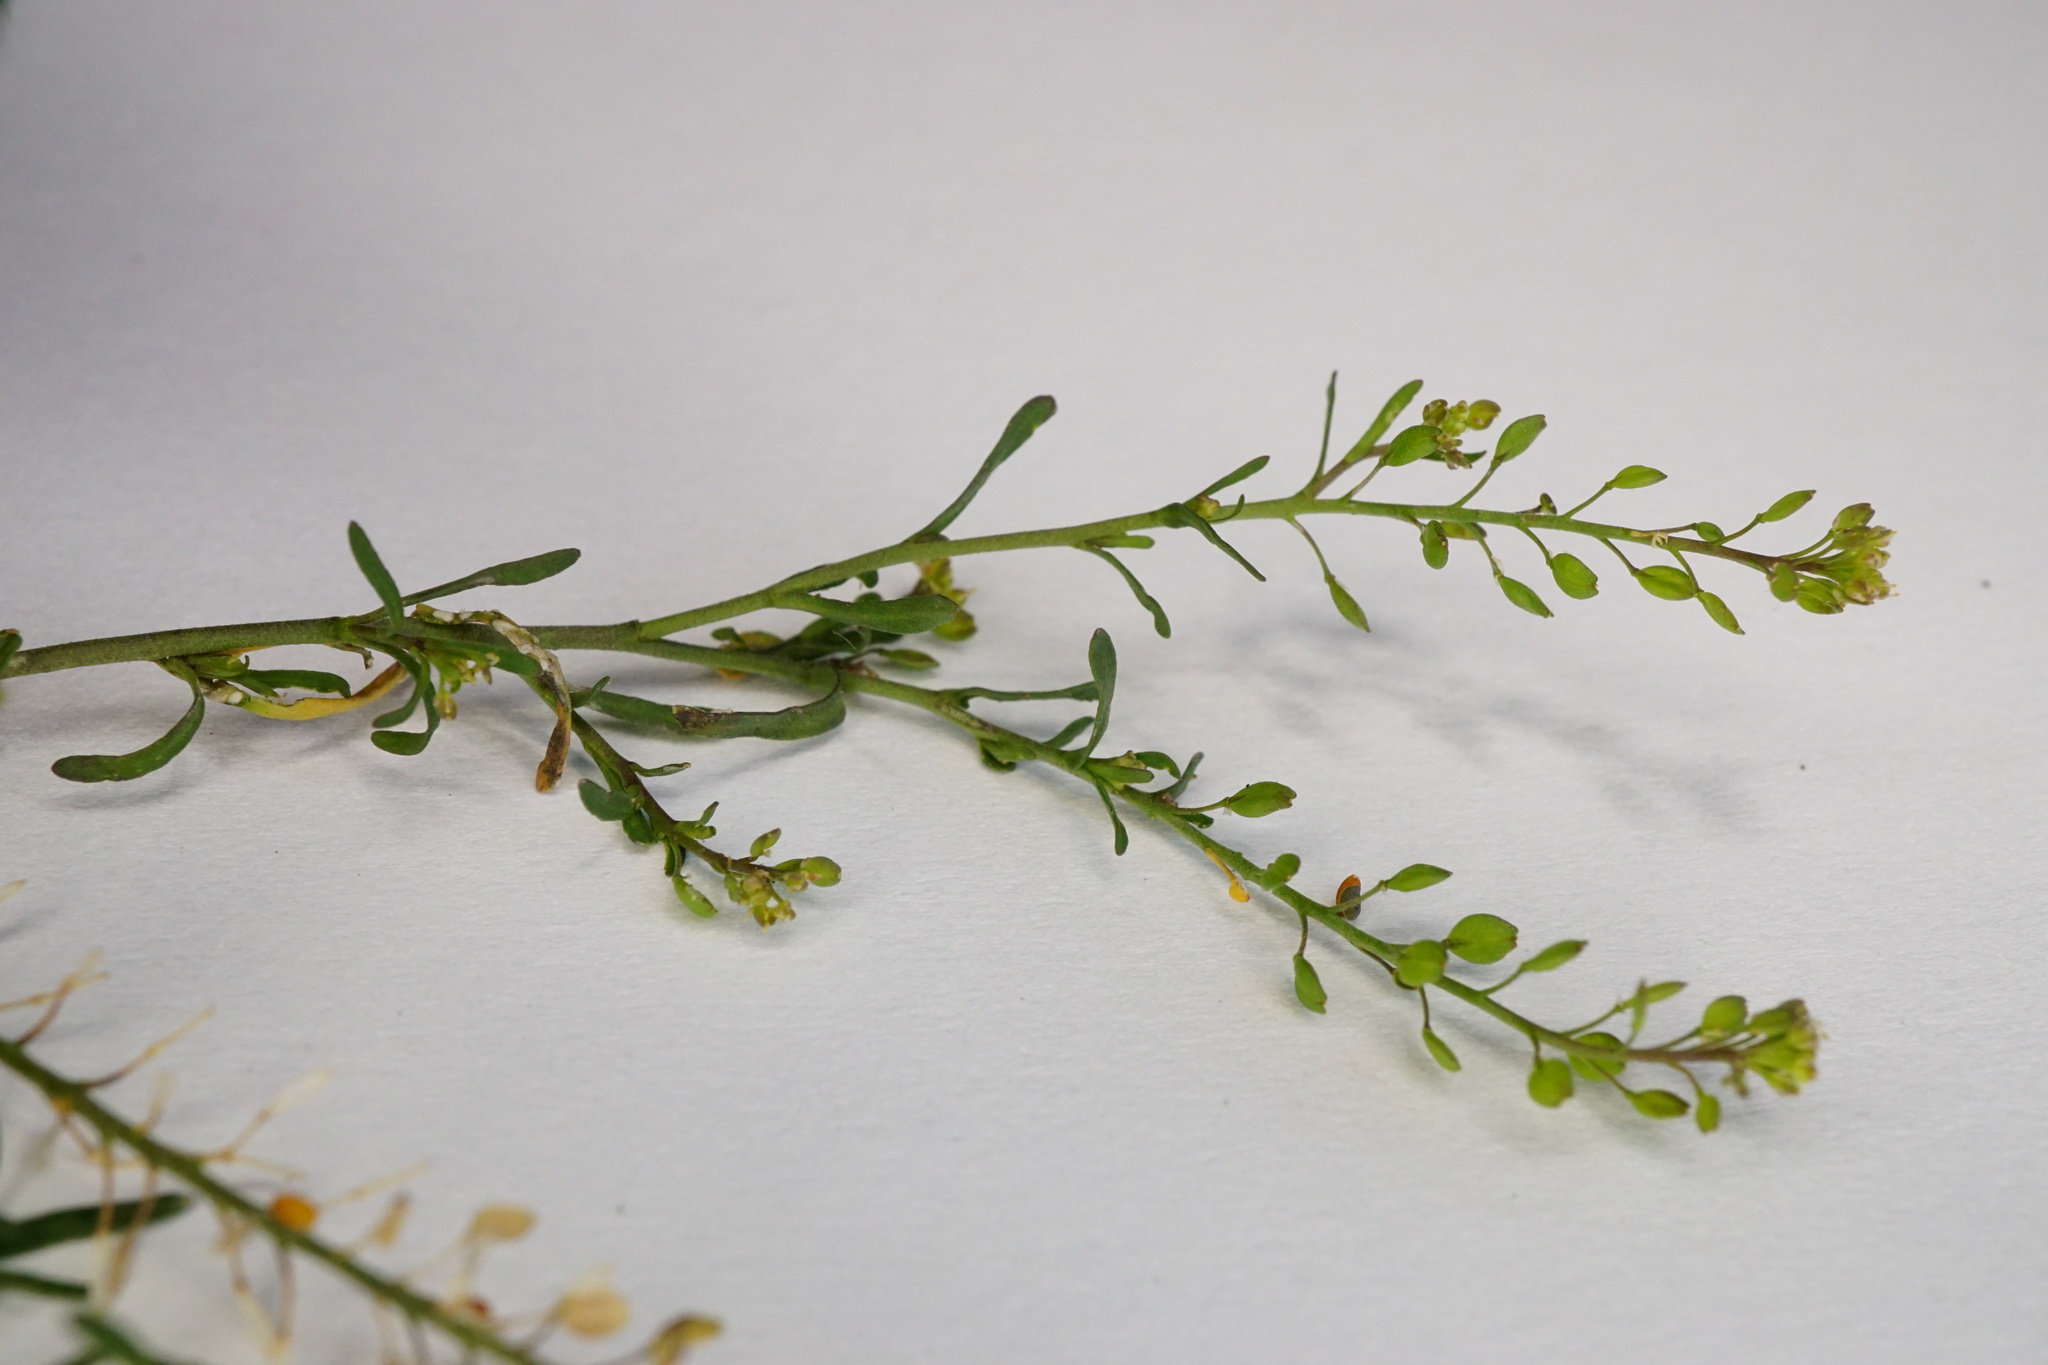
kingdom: Plantae
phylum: Tracheophyta
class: Magnoliopsida
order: Brassicales
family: Brassicaceae
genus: Lepidium
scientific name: Lepidium ruderale
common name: Narrow-leaved pepperwort
